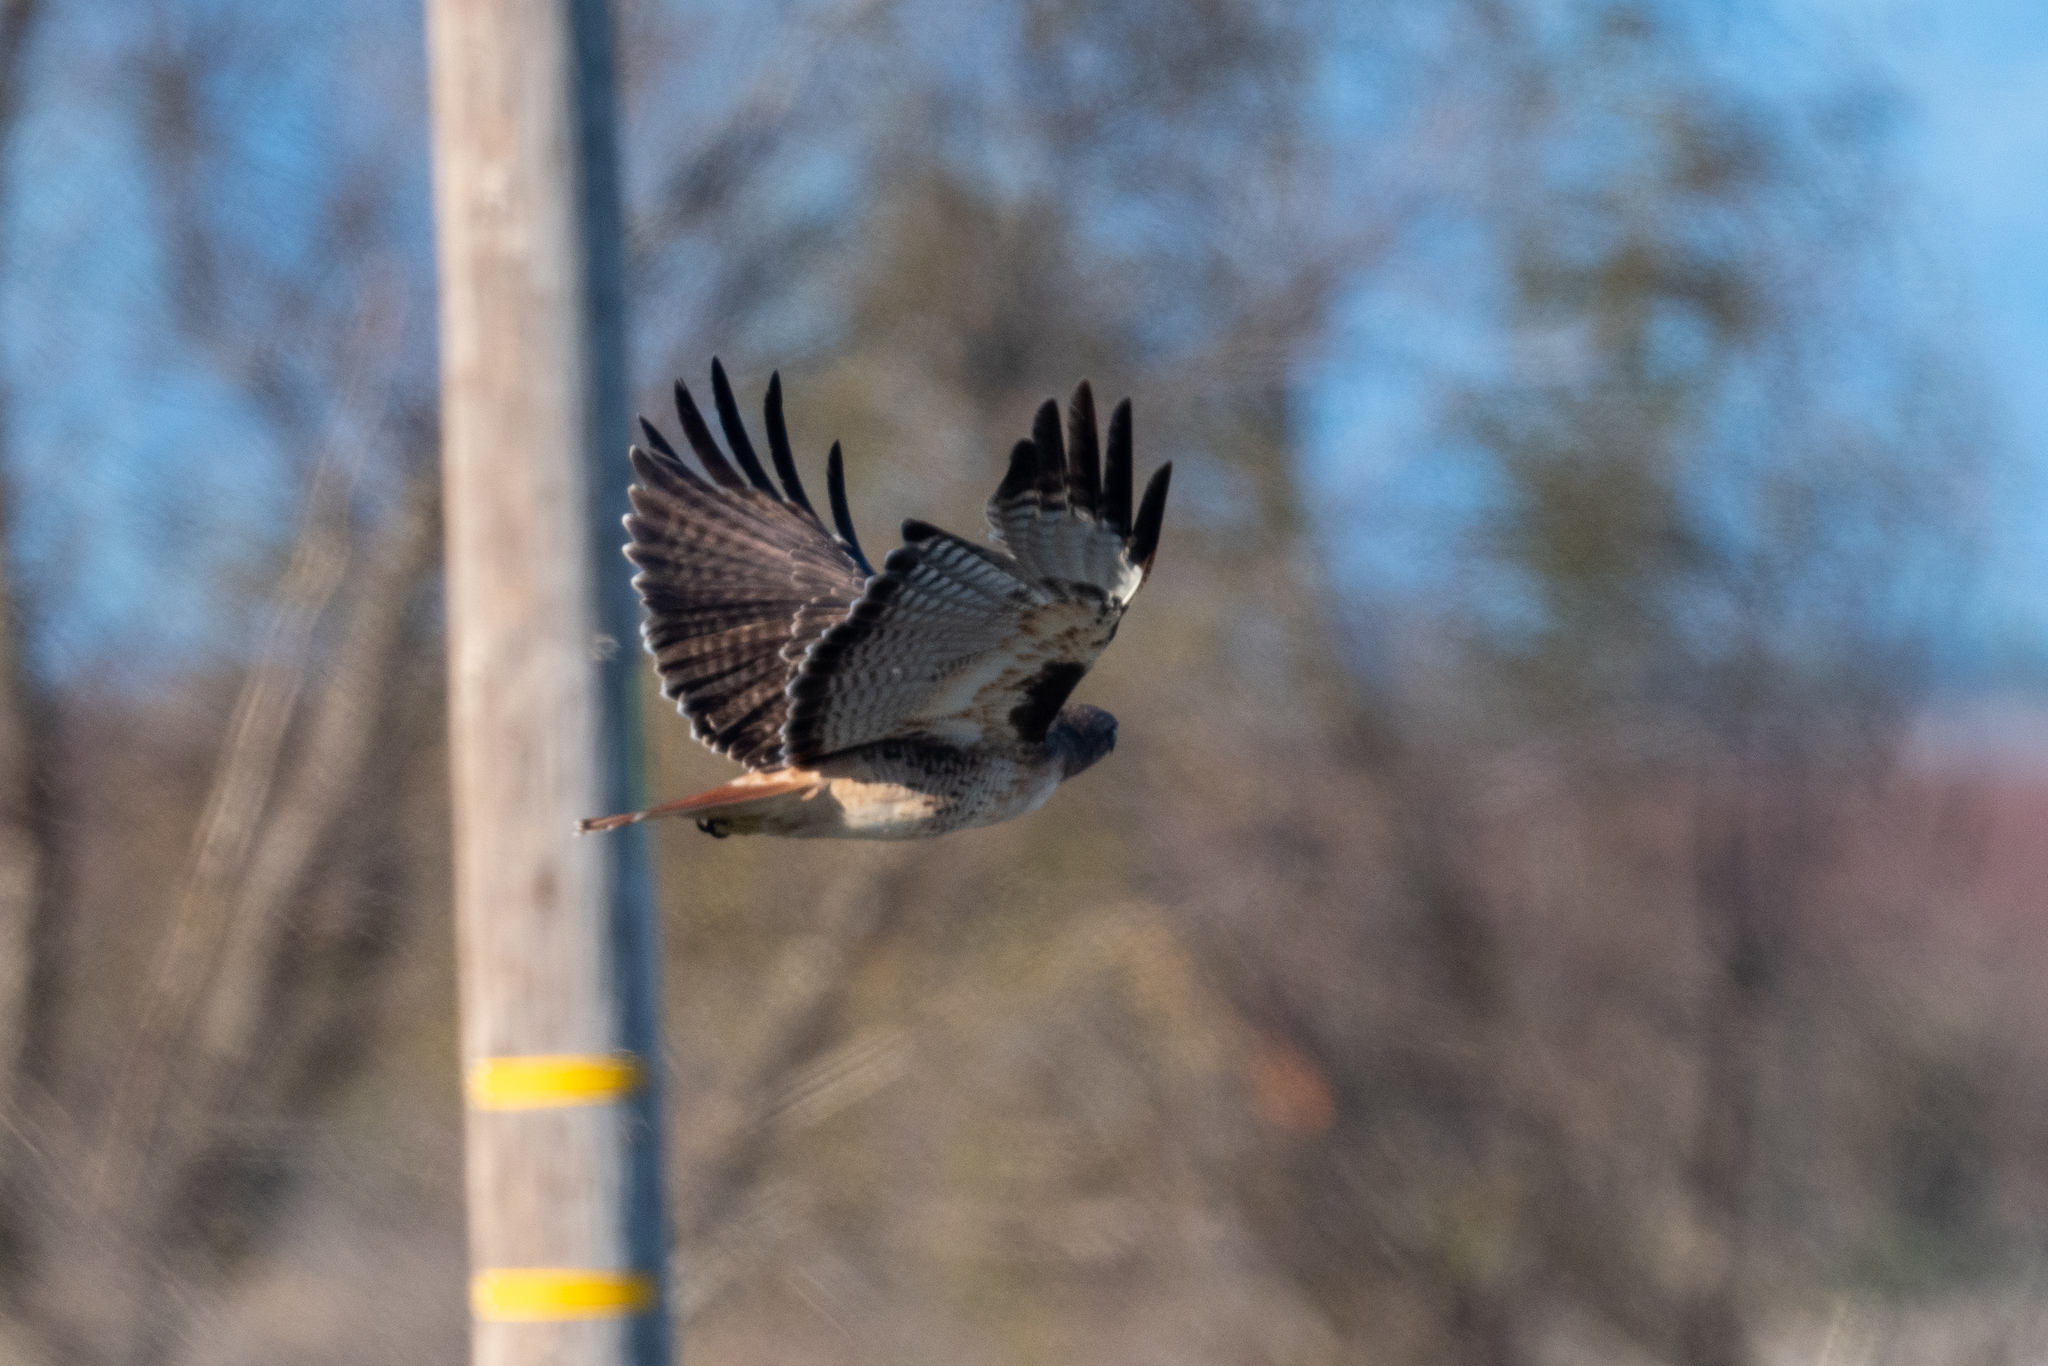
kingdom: Animalia
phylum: Chordata
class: Aves
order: Accipitriformes
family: Accipitridae
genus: Buteo
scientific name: Buteo jamaicensis
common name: Red-tailed hawk
